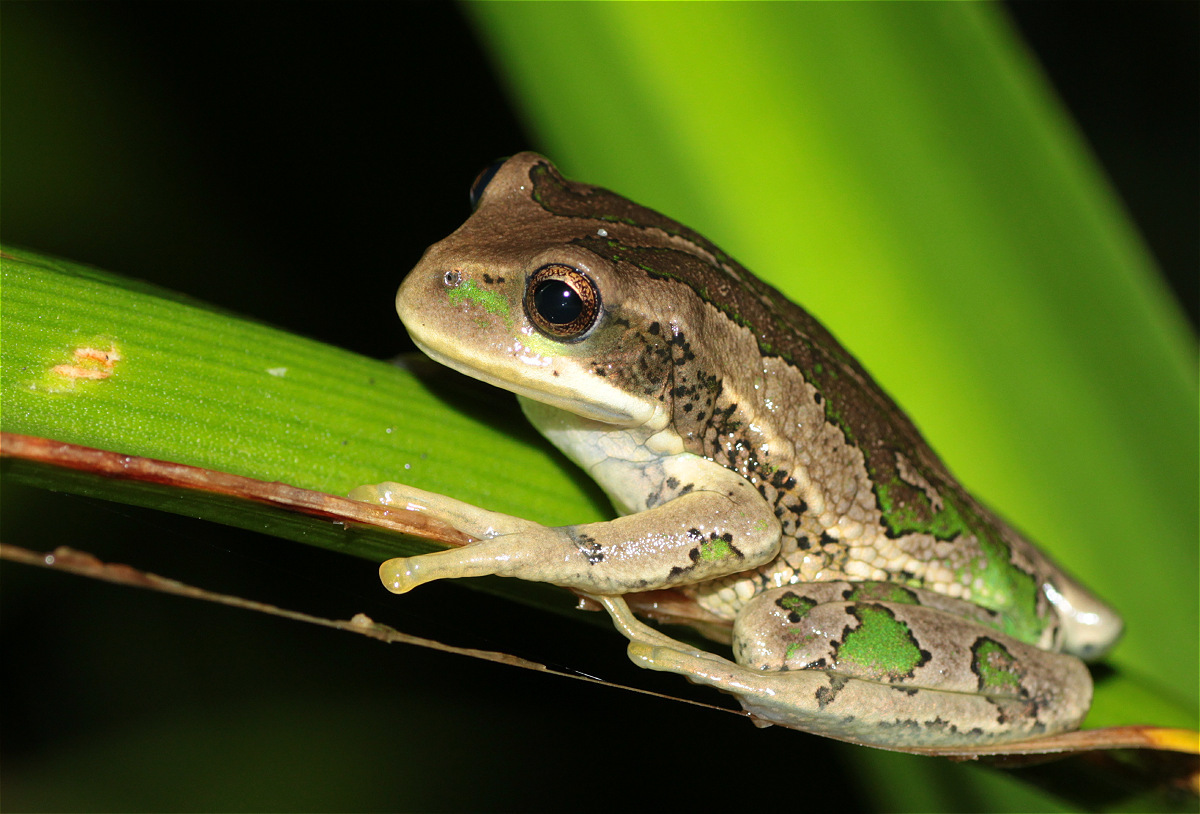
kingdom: Animalia
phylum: Chordata
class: Amphibia
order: Anura
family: Hemiphractidae
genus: Gastrotheca
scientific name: Gastrotheca cuencana
